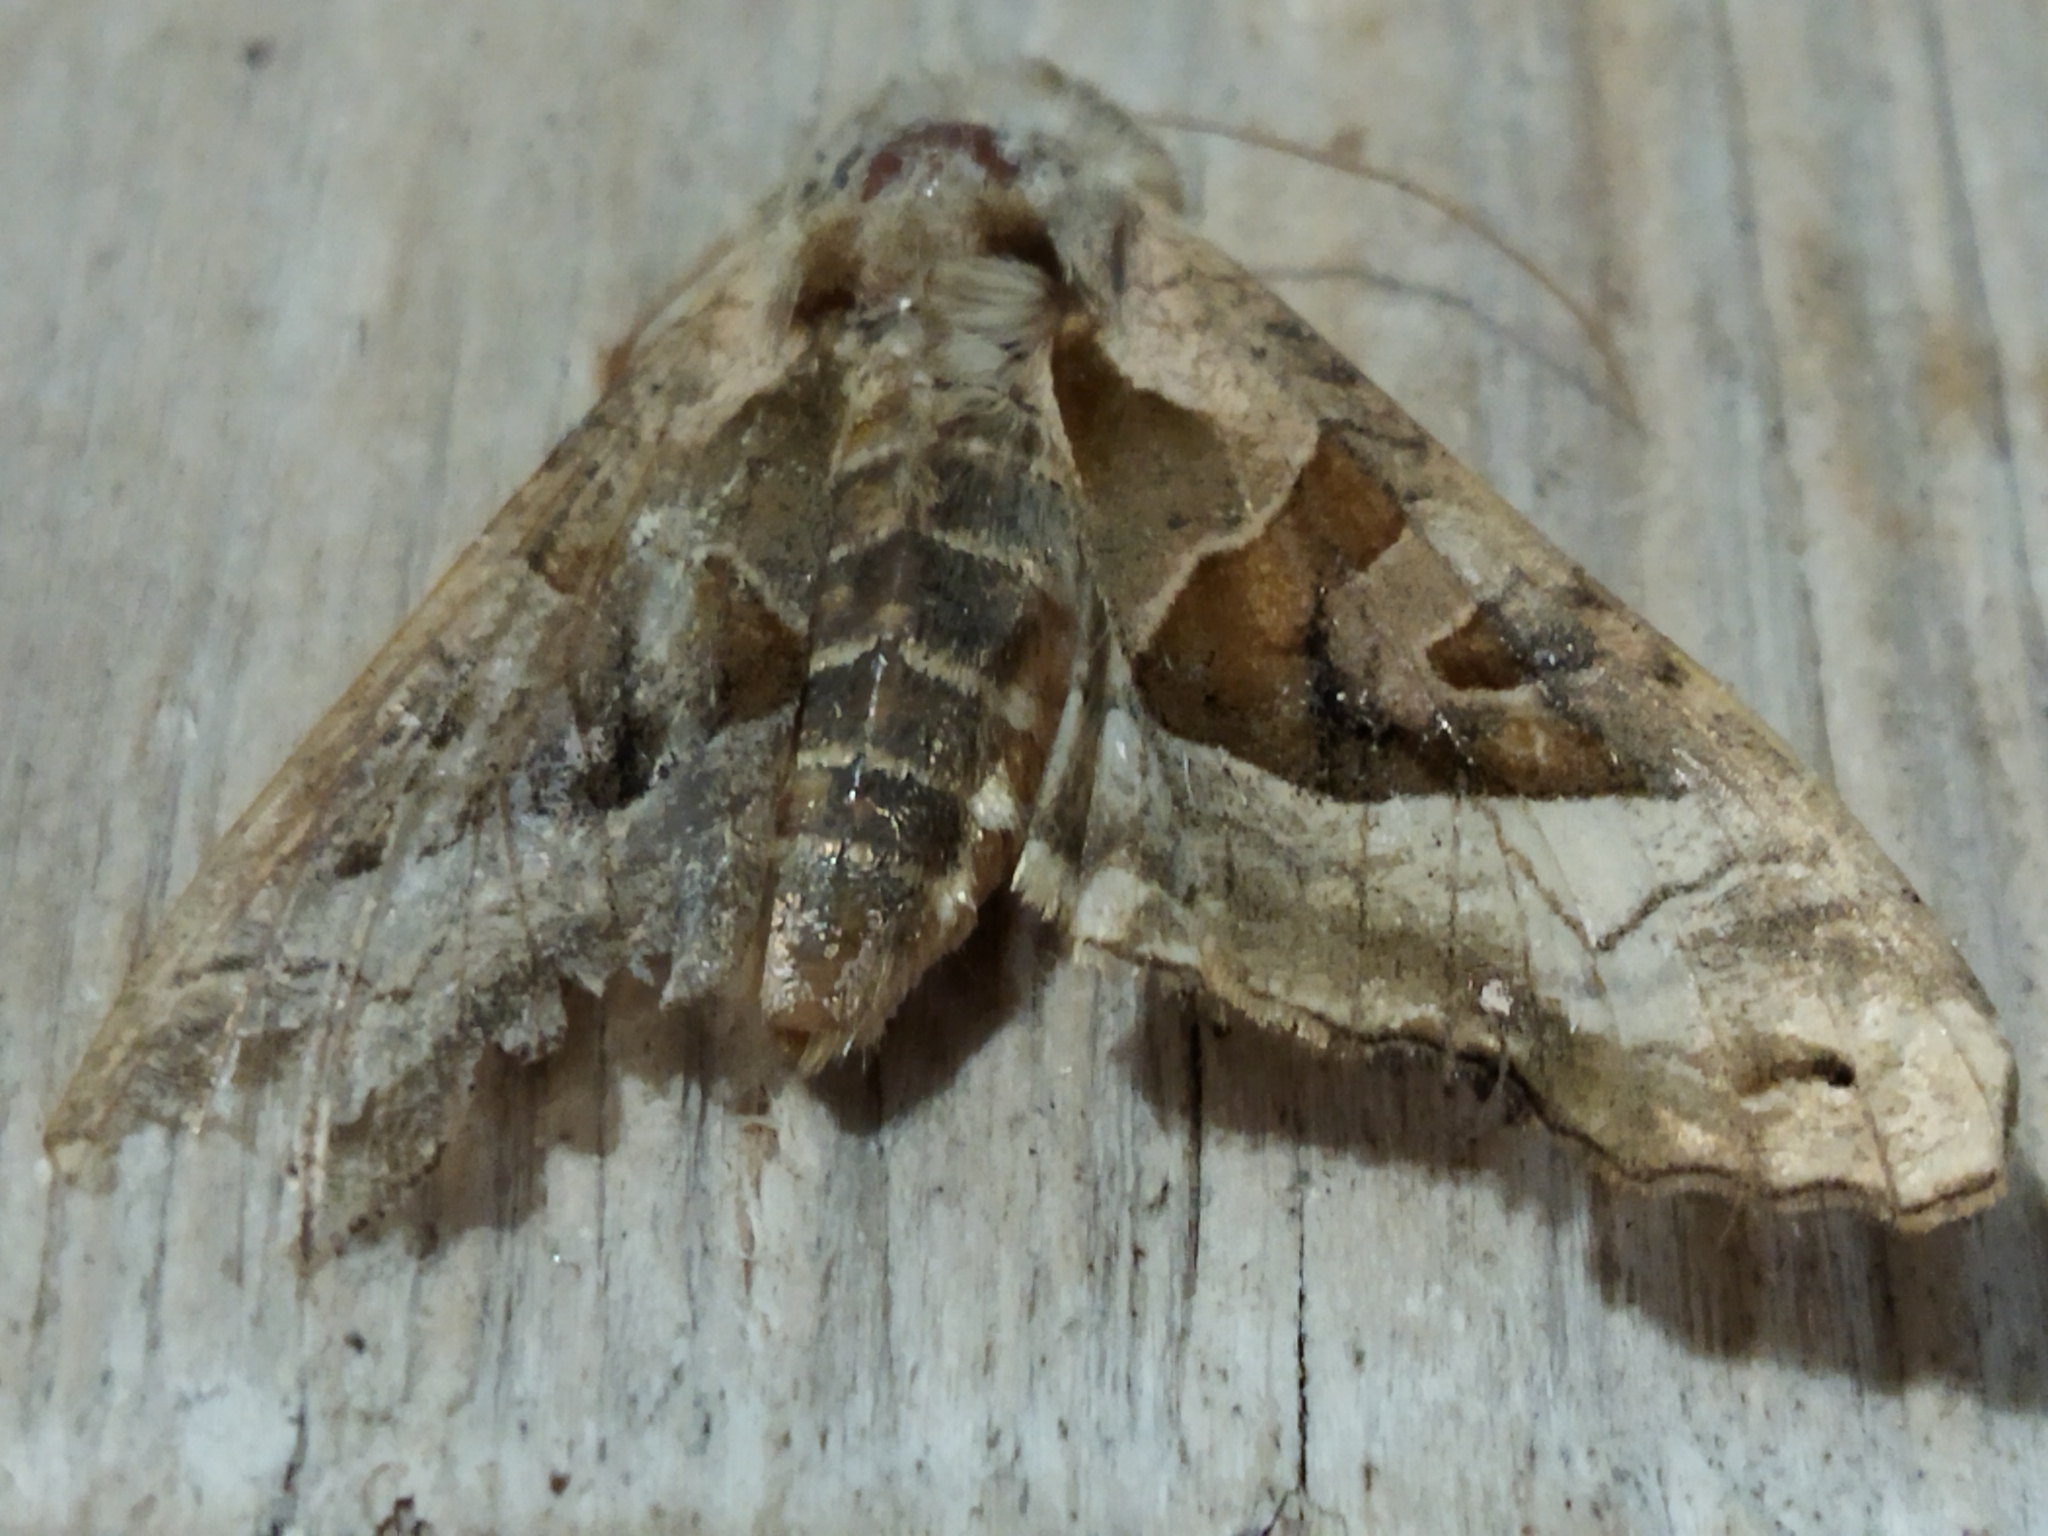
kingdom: Animalia
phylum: Arthropoda
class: Insecta
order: Lepidoptera
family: Noctuidae
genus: Phlogophora
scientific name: Phlogophora meticulosa
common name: Angle shades
